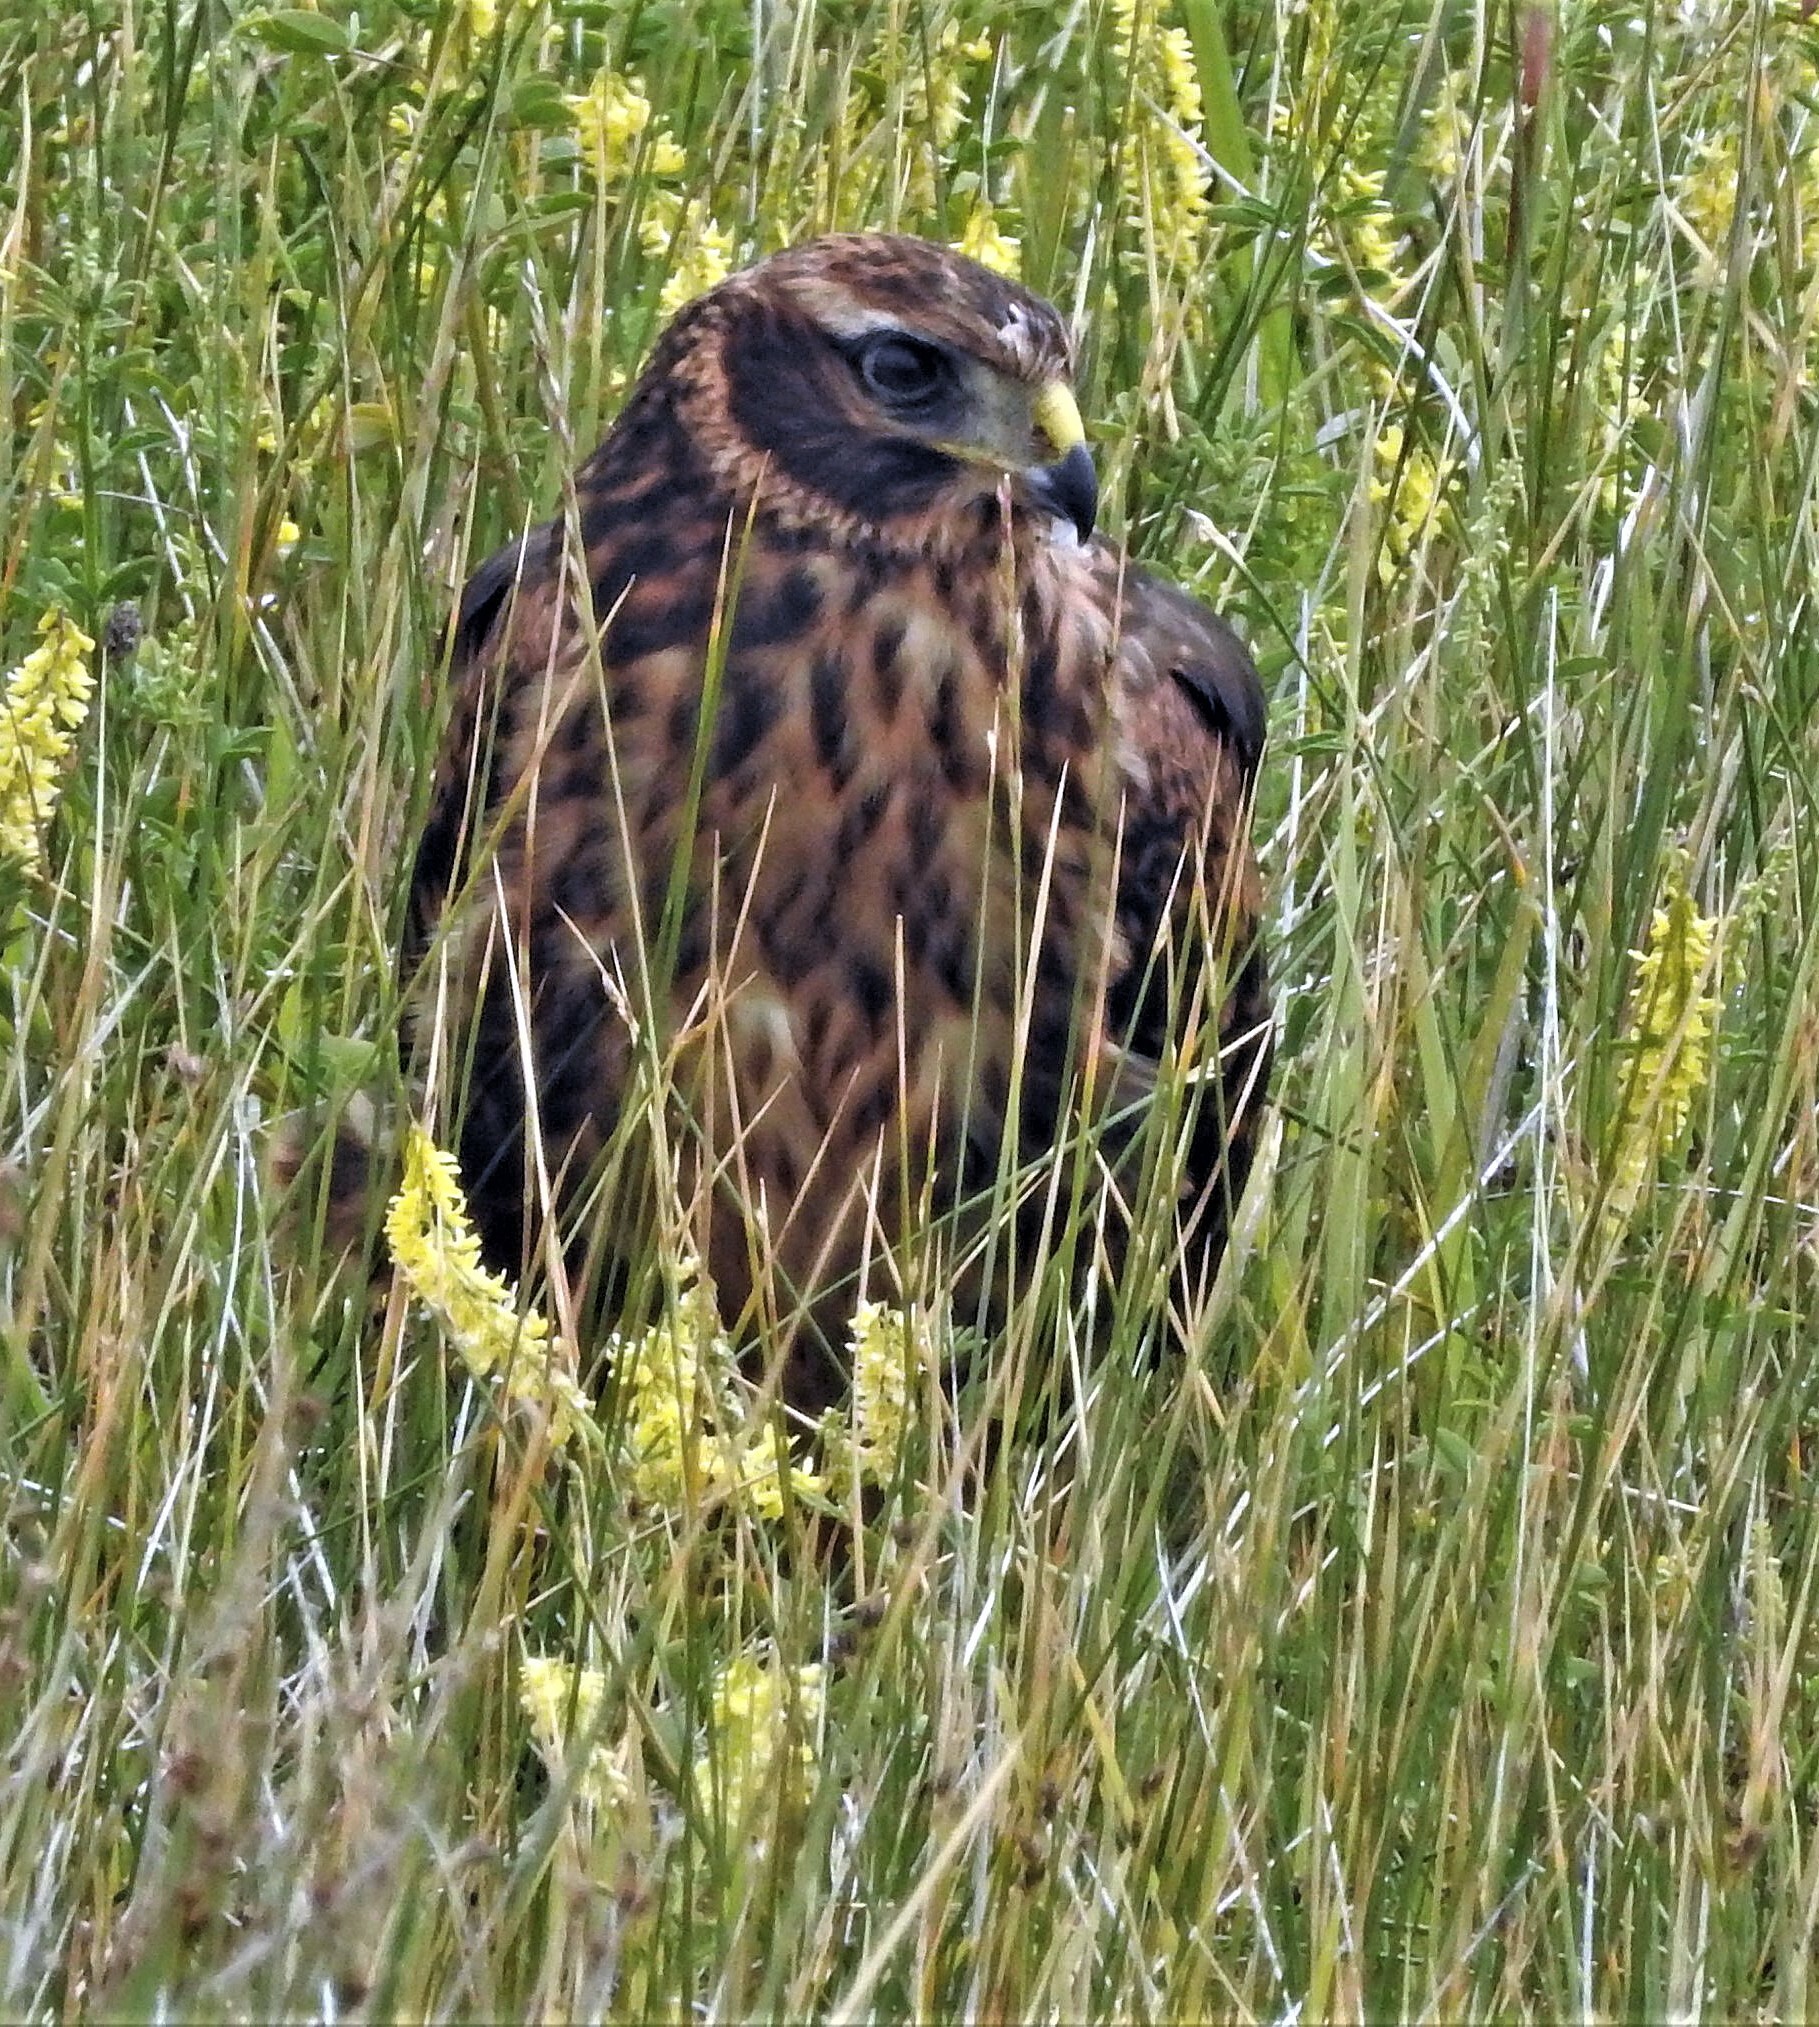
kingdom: Animalia
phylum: Chordata
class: Aves
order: Accipitriformes
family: Accipitridae
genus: Circus
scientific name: Circus cinereus
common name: Cinereous harrier
